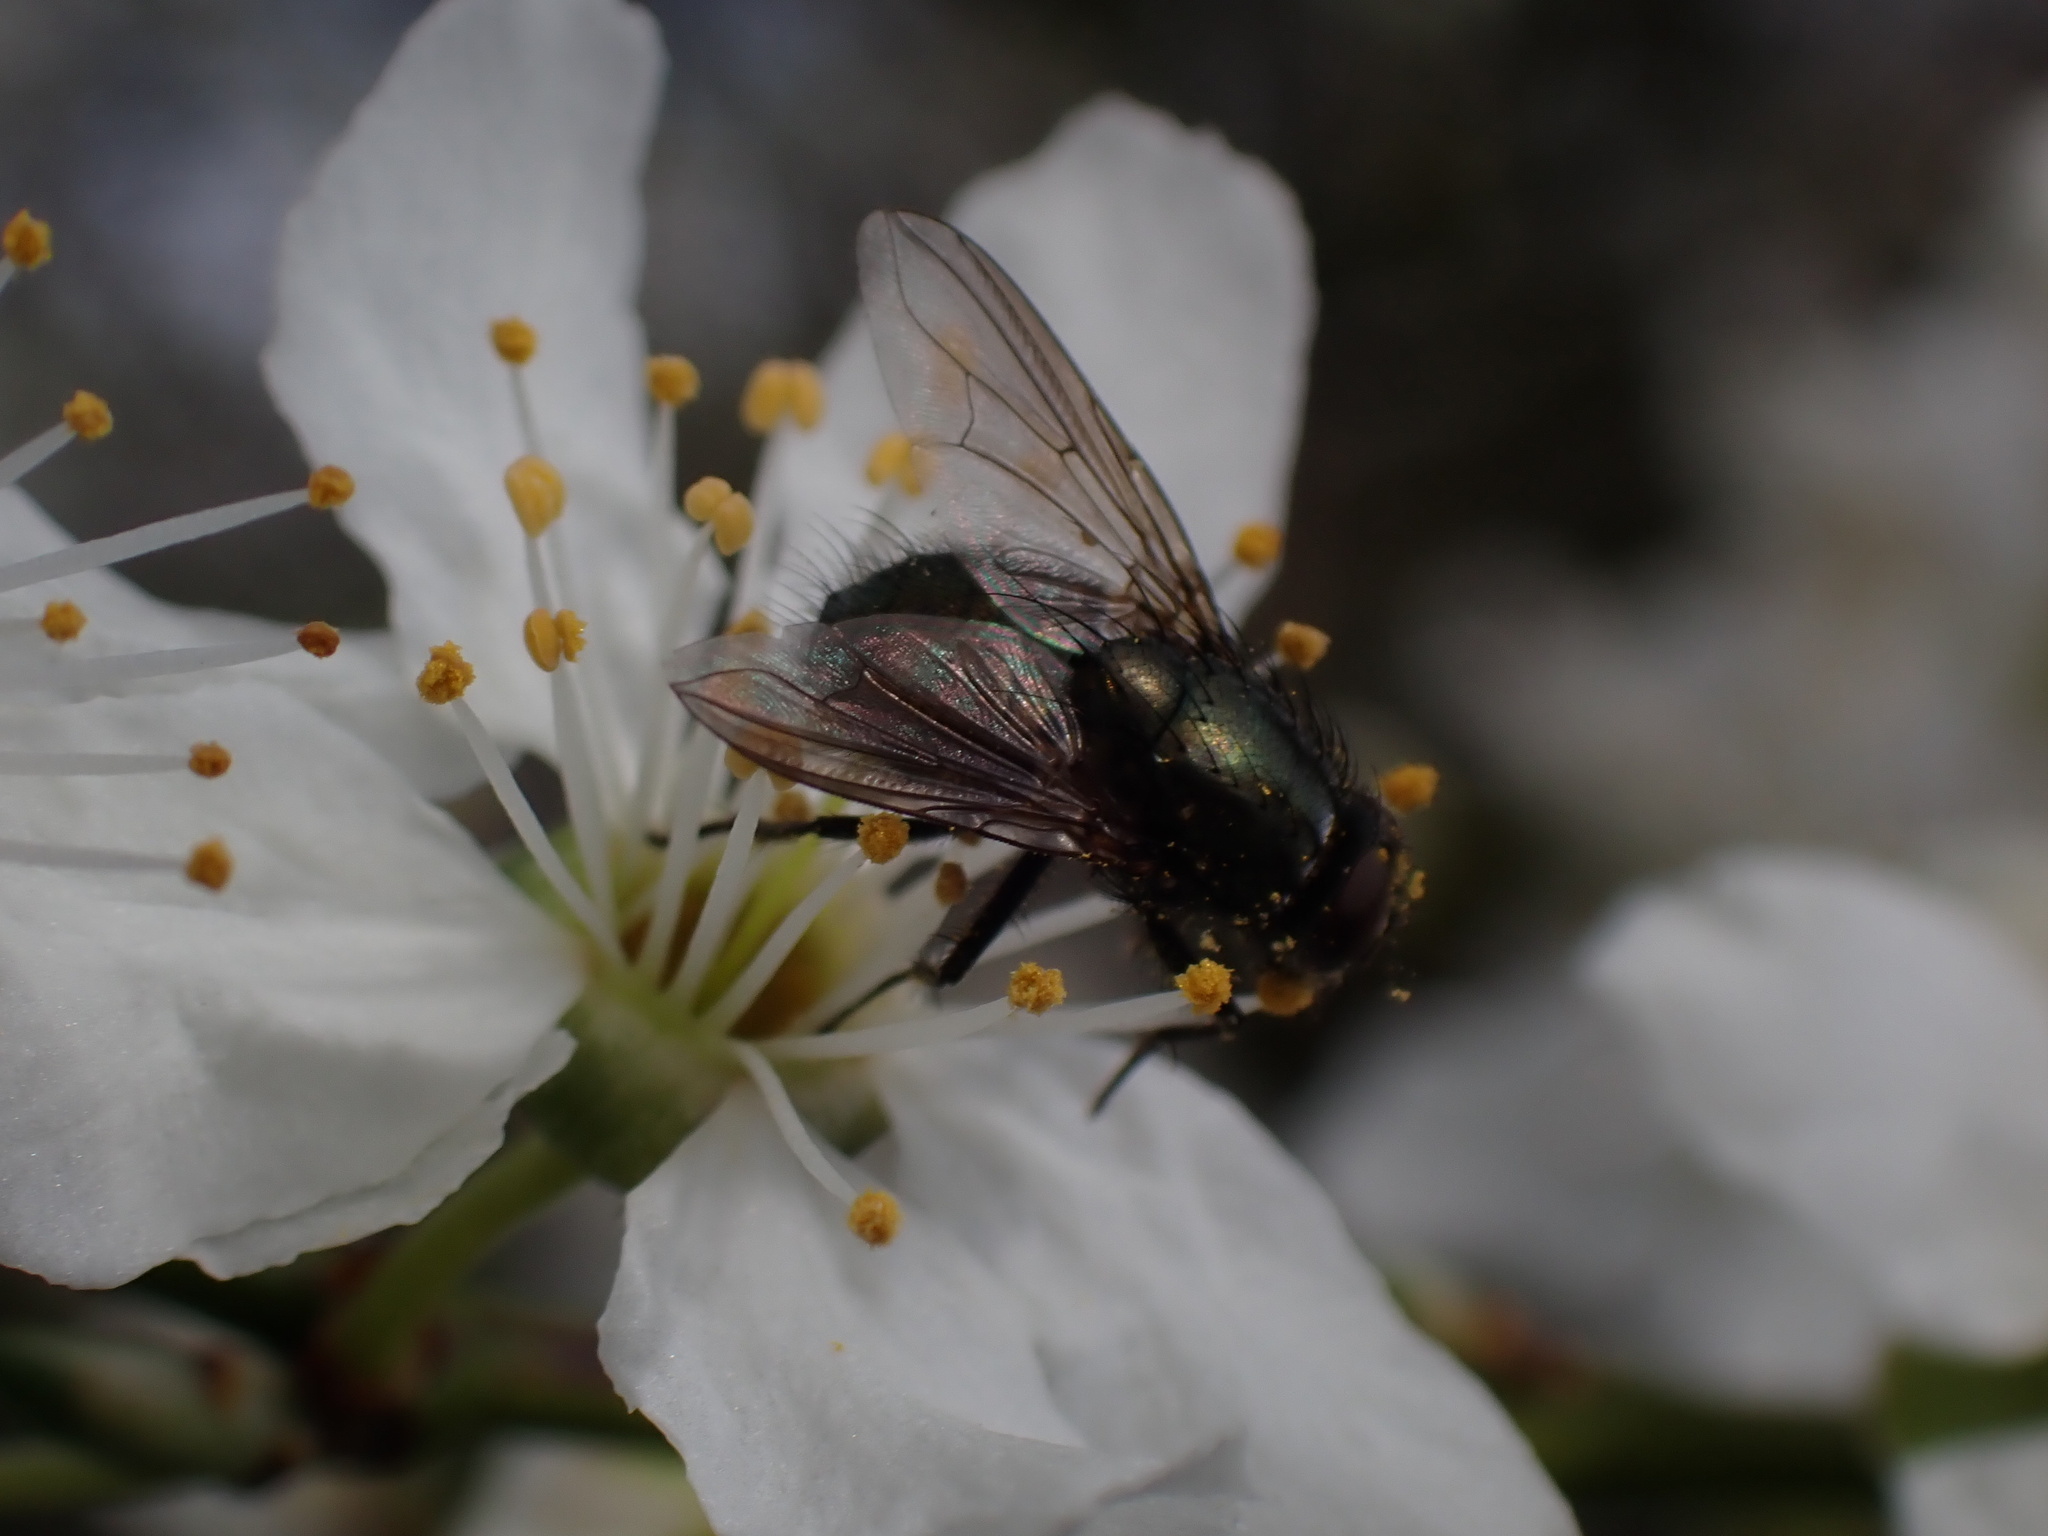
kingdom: Animalia
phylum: Arthropoda
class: Insecta
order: Diptera
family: Muscidae
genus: Dasyphora
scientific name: Dasyphora cyanella
